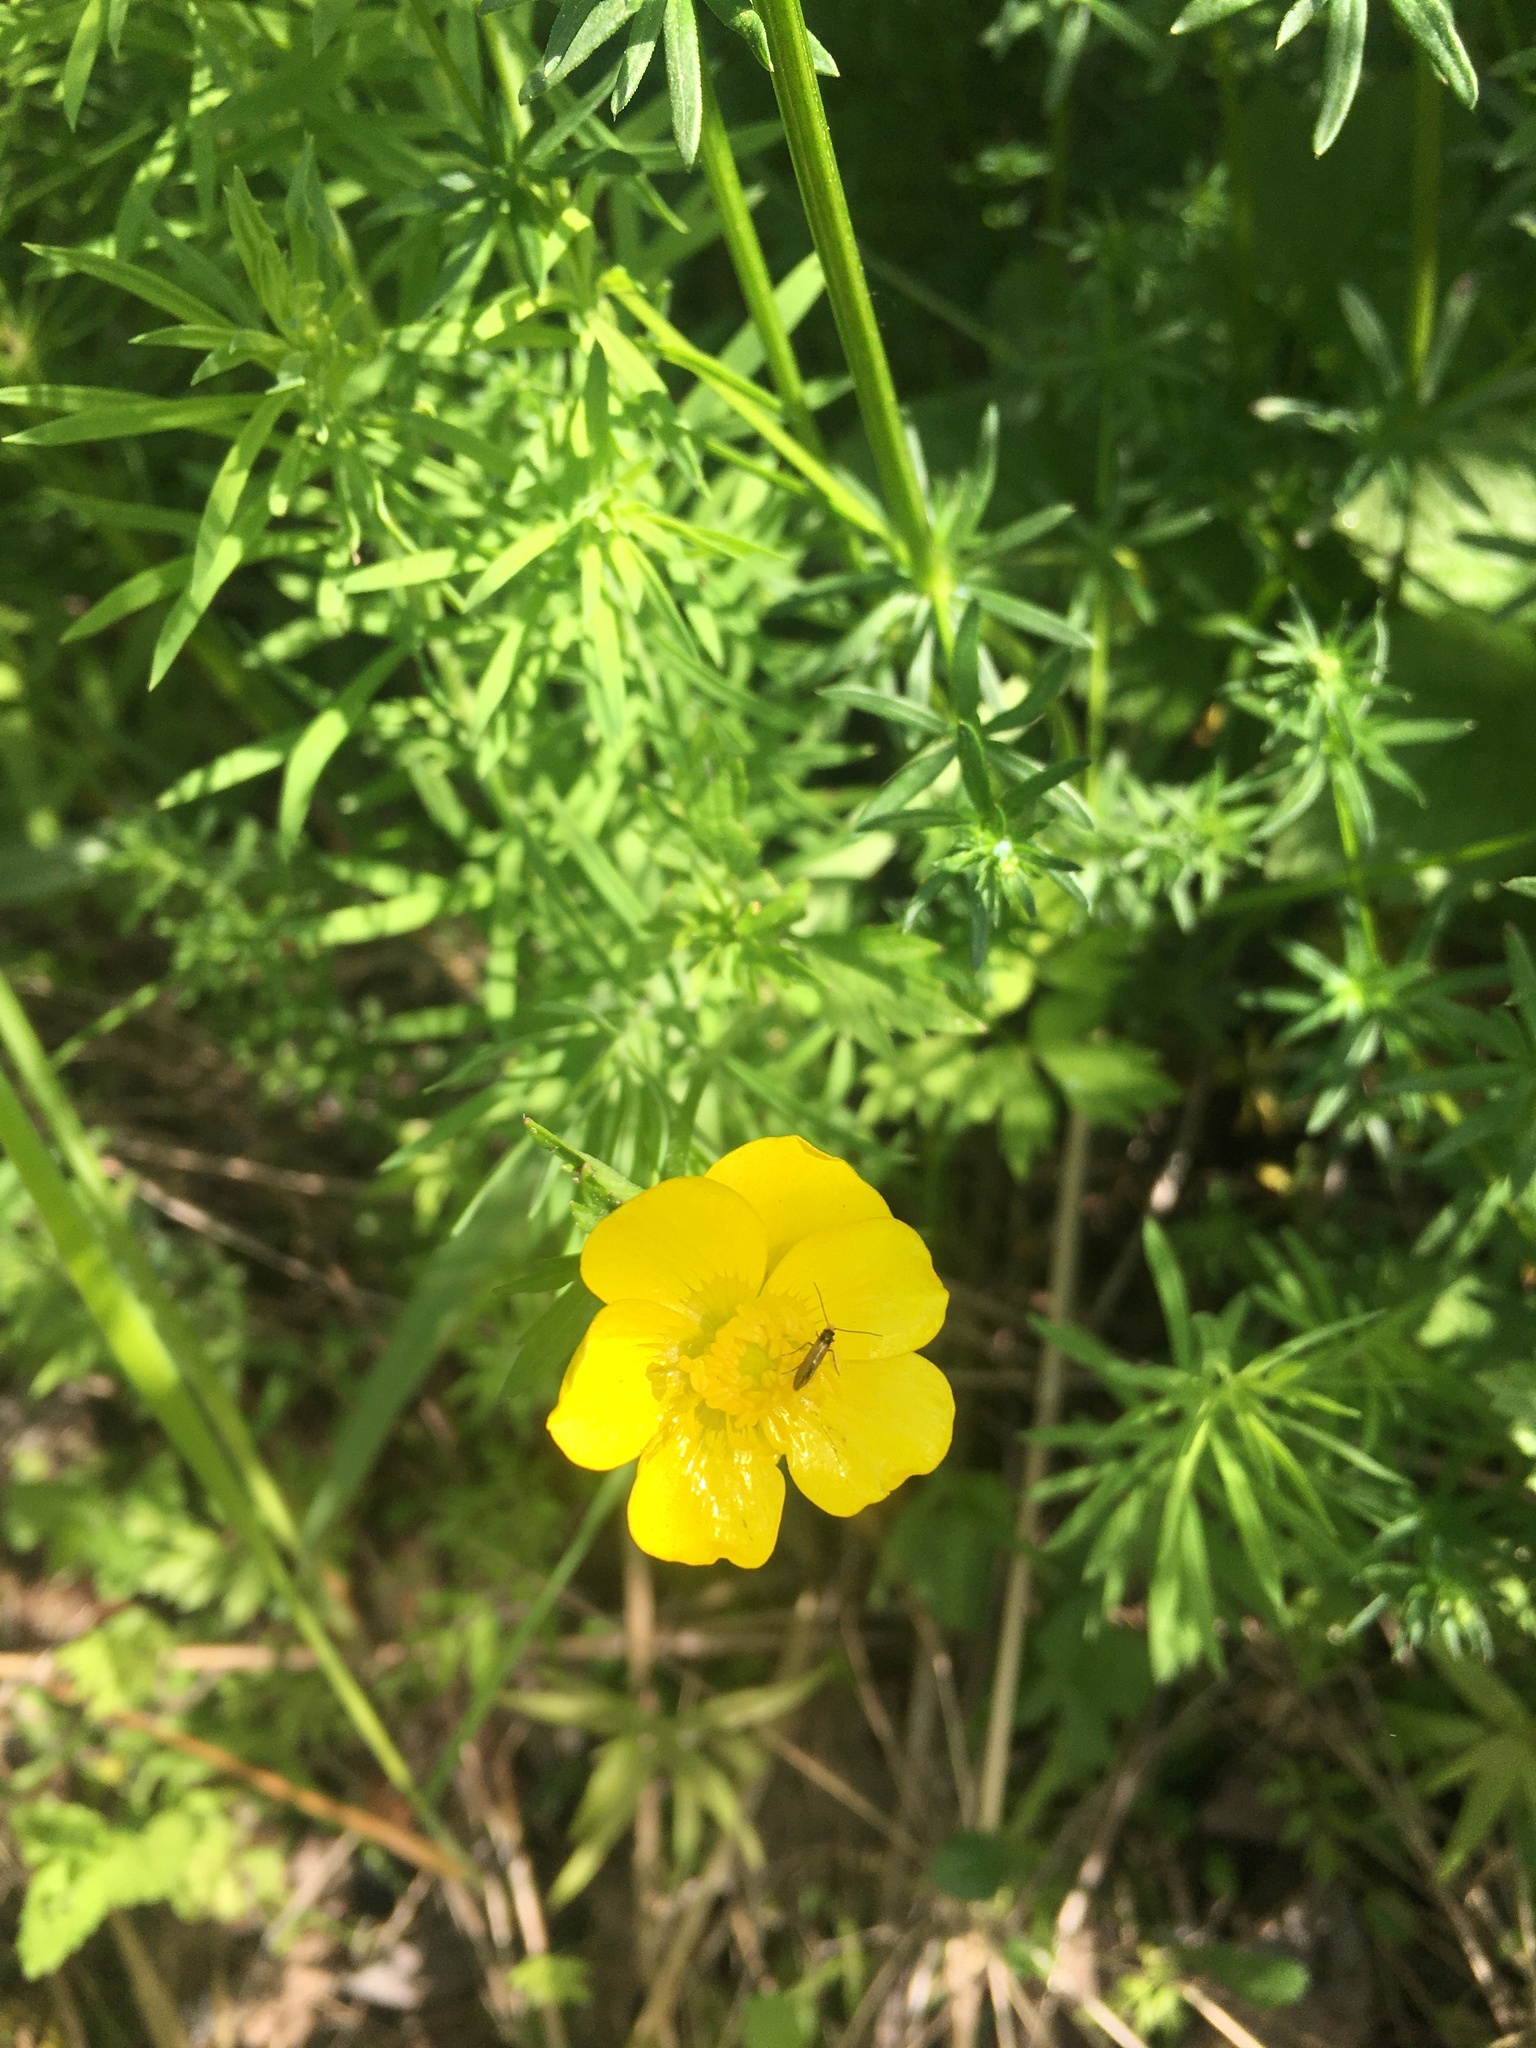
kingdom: Animalia
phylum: Arthropoda
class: Insecta
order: Lepidoptera
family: Micropterigidae
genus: Micropterix
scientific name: Micropterix calthella
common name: Plain gold
